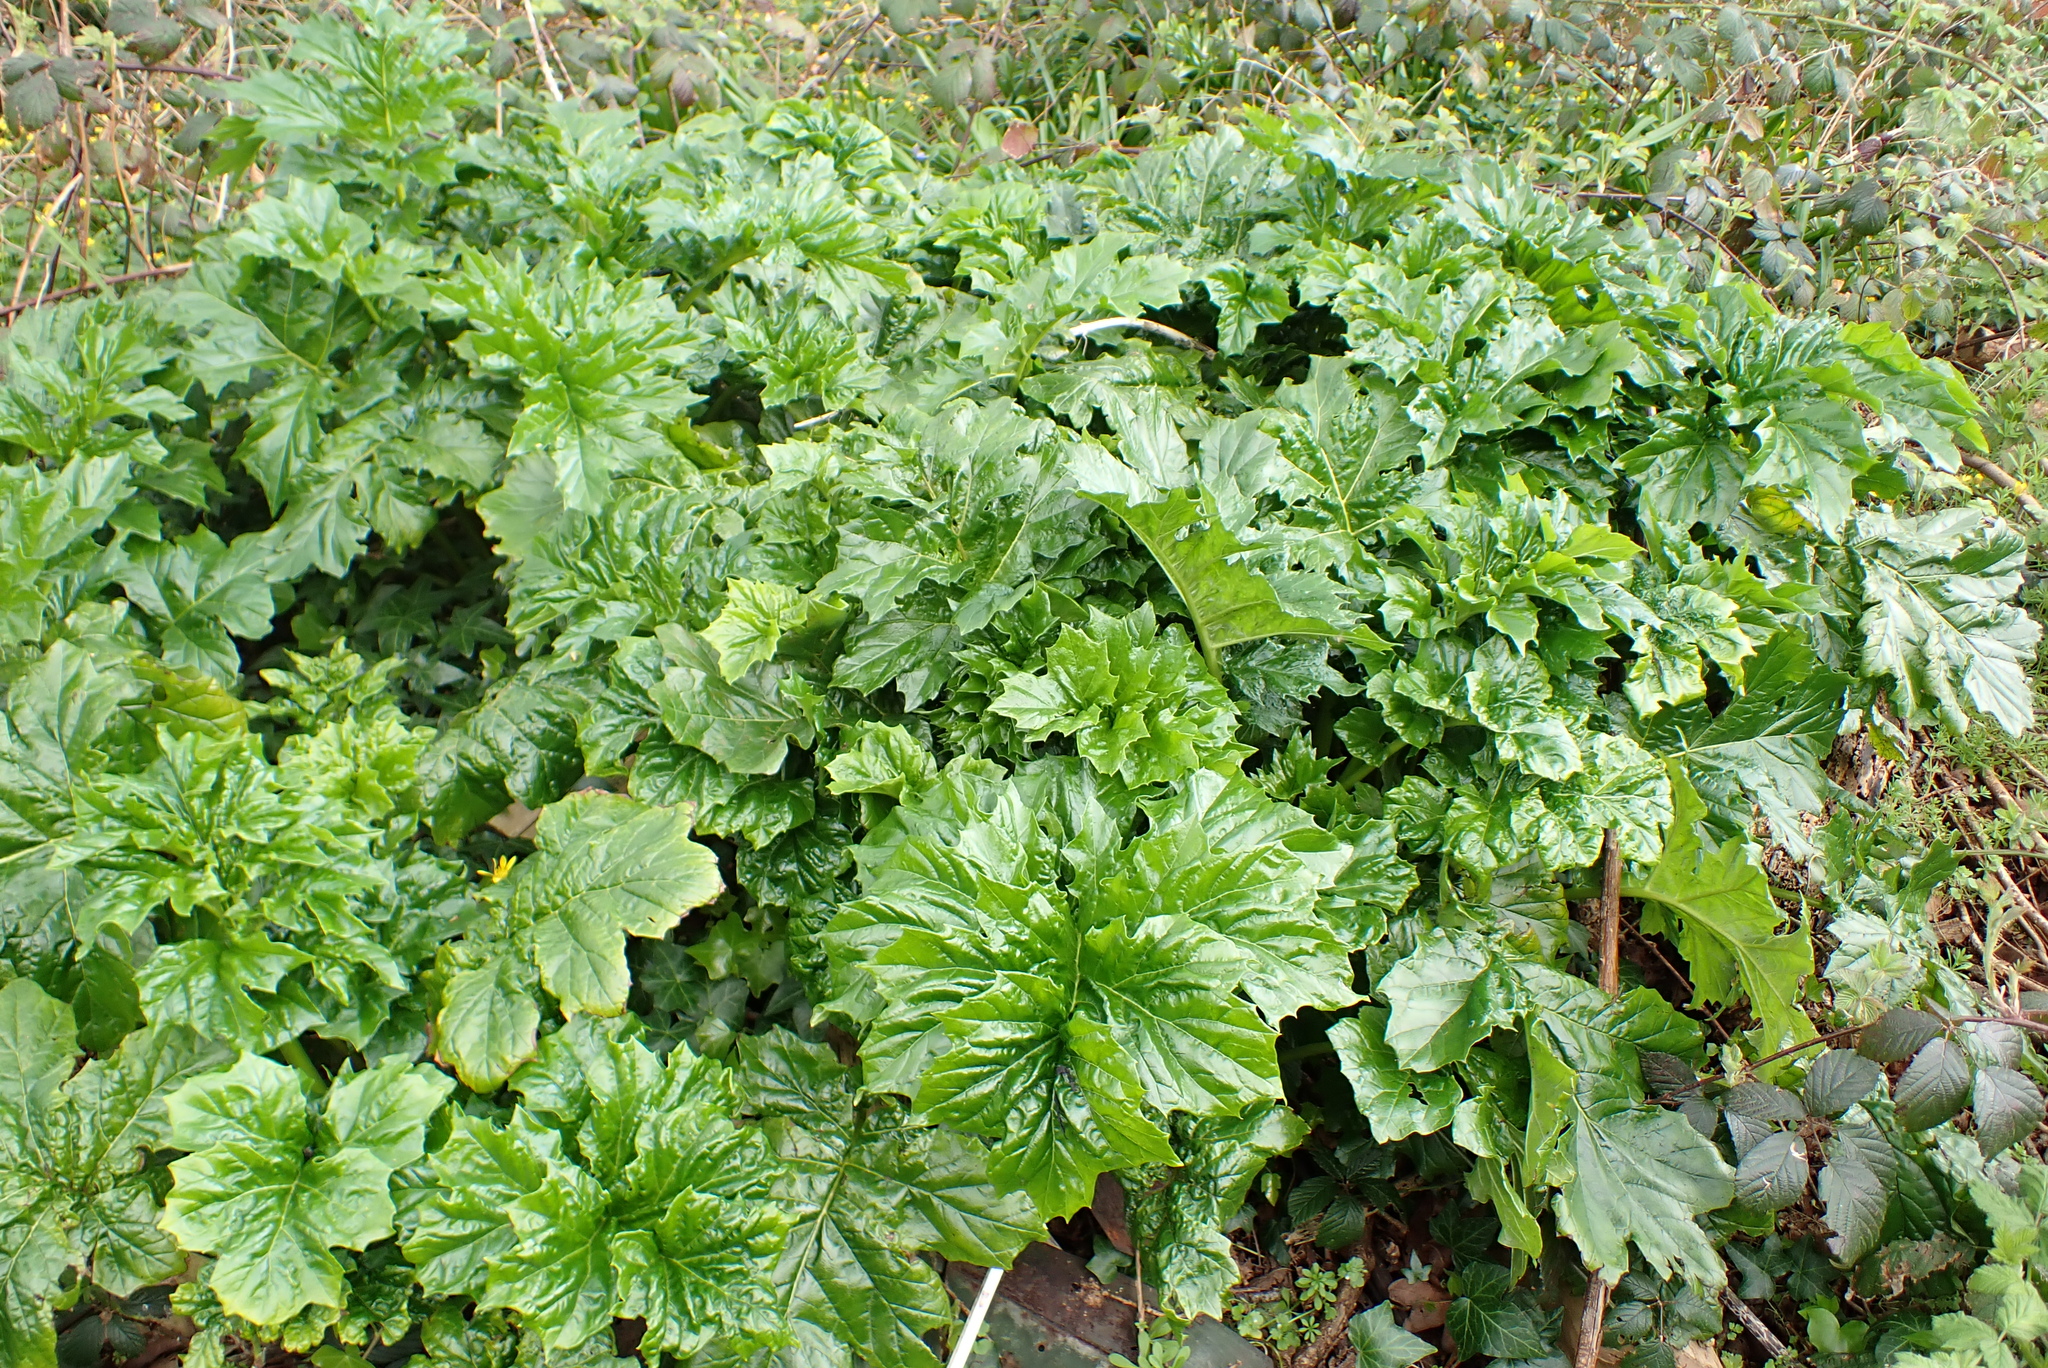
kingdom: Plantae
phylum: Tracheophyta
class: Magnoliopsida
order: Lamiales
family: Acanthaceae
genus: Acanthus
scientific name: Acanthus mollis
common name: Bear's-breech
